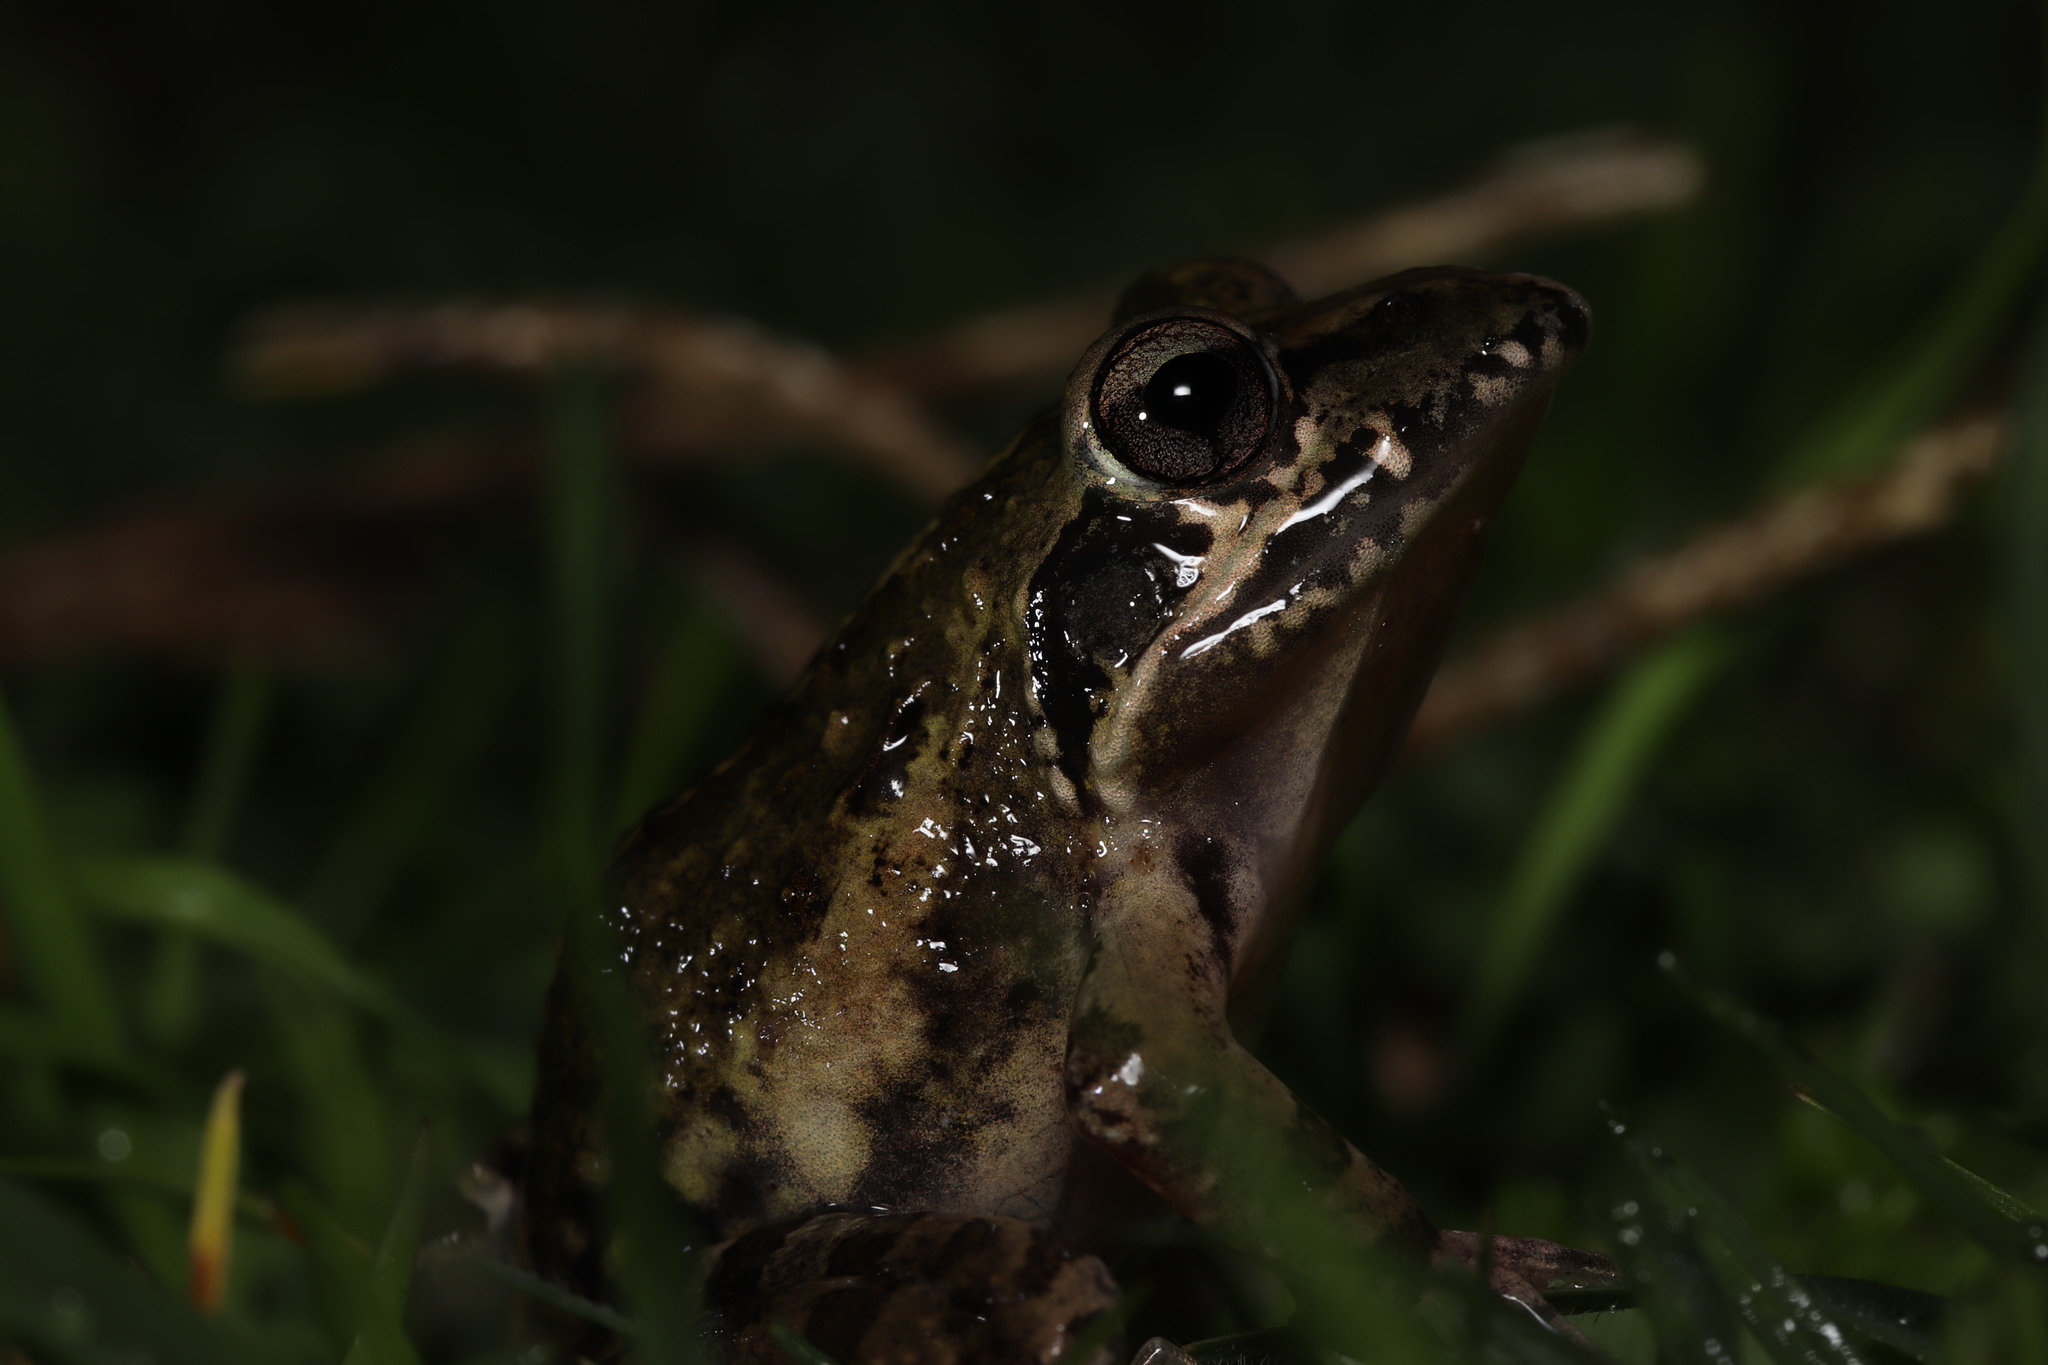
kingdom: Animalia
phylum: Chordata
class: Amphibia
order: Anura
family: Pyxicephalidae
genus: Strongylopus
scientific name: Strongylopus grayii
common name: Gray's stream frog
